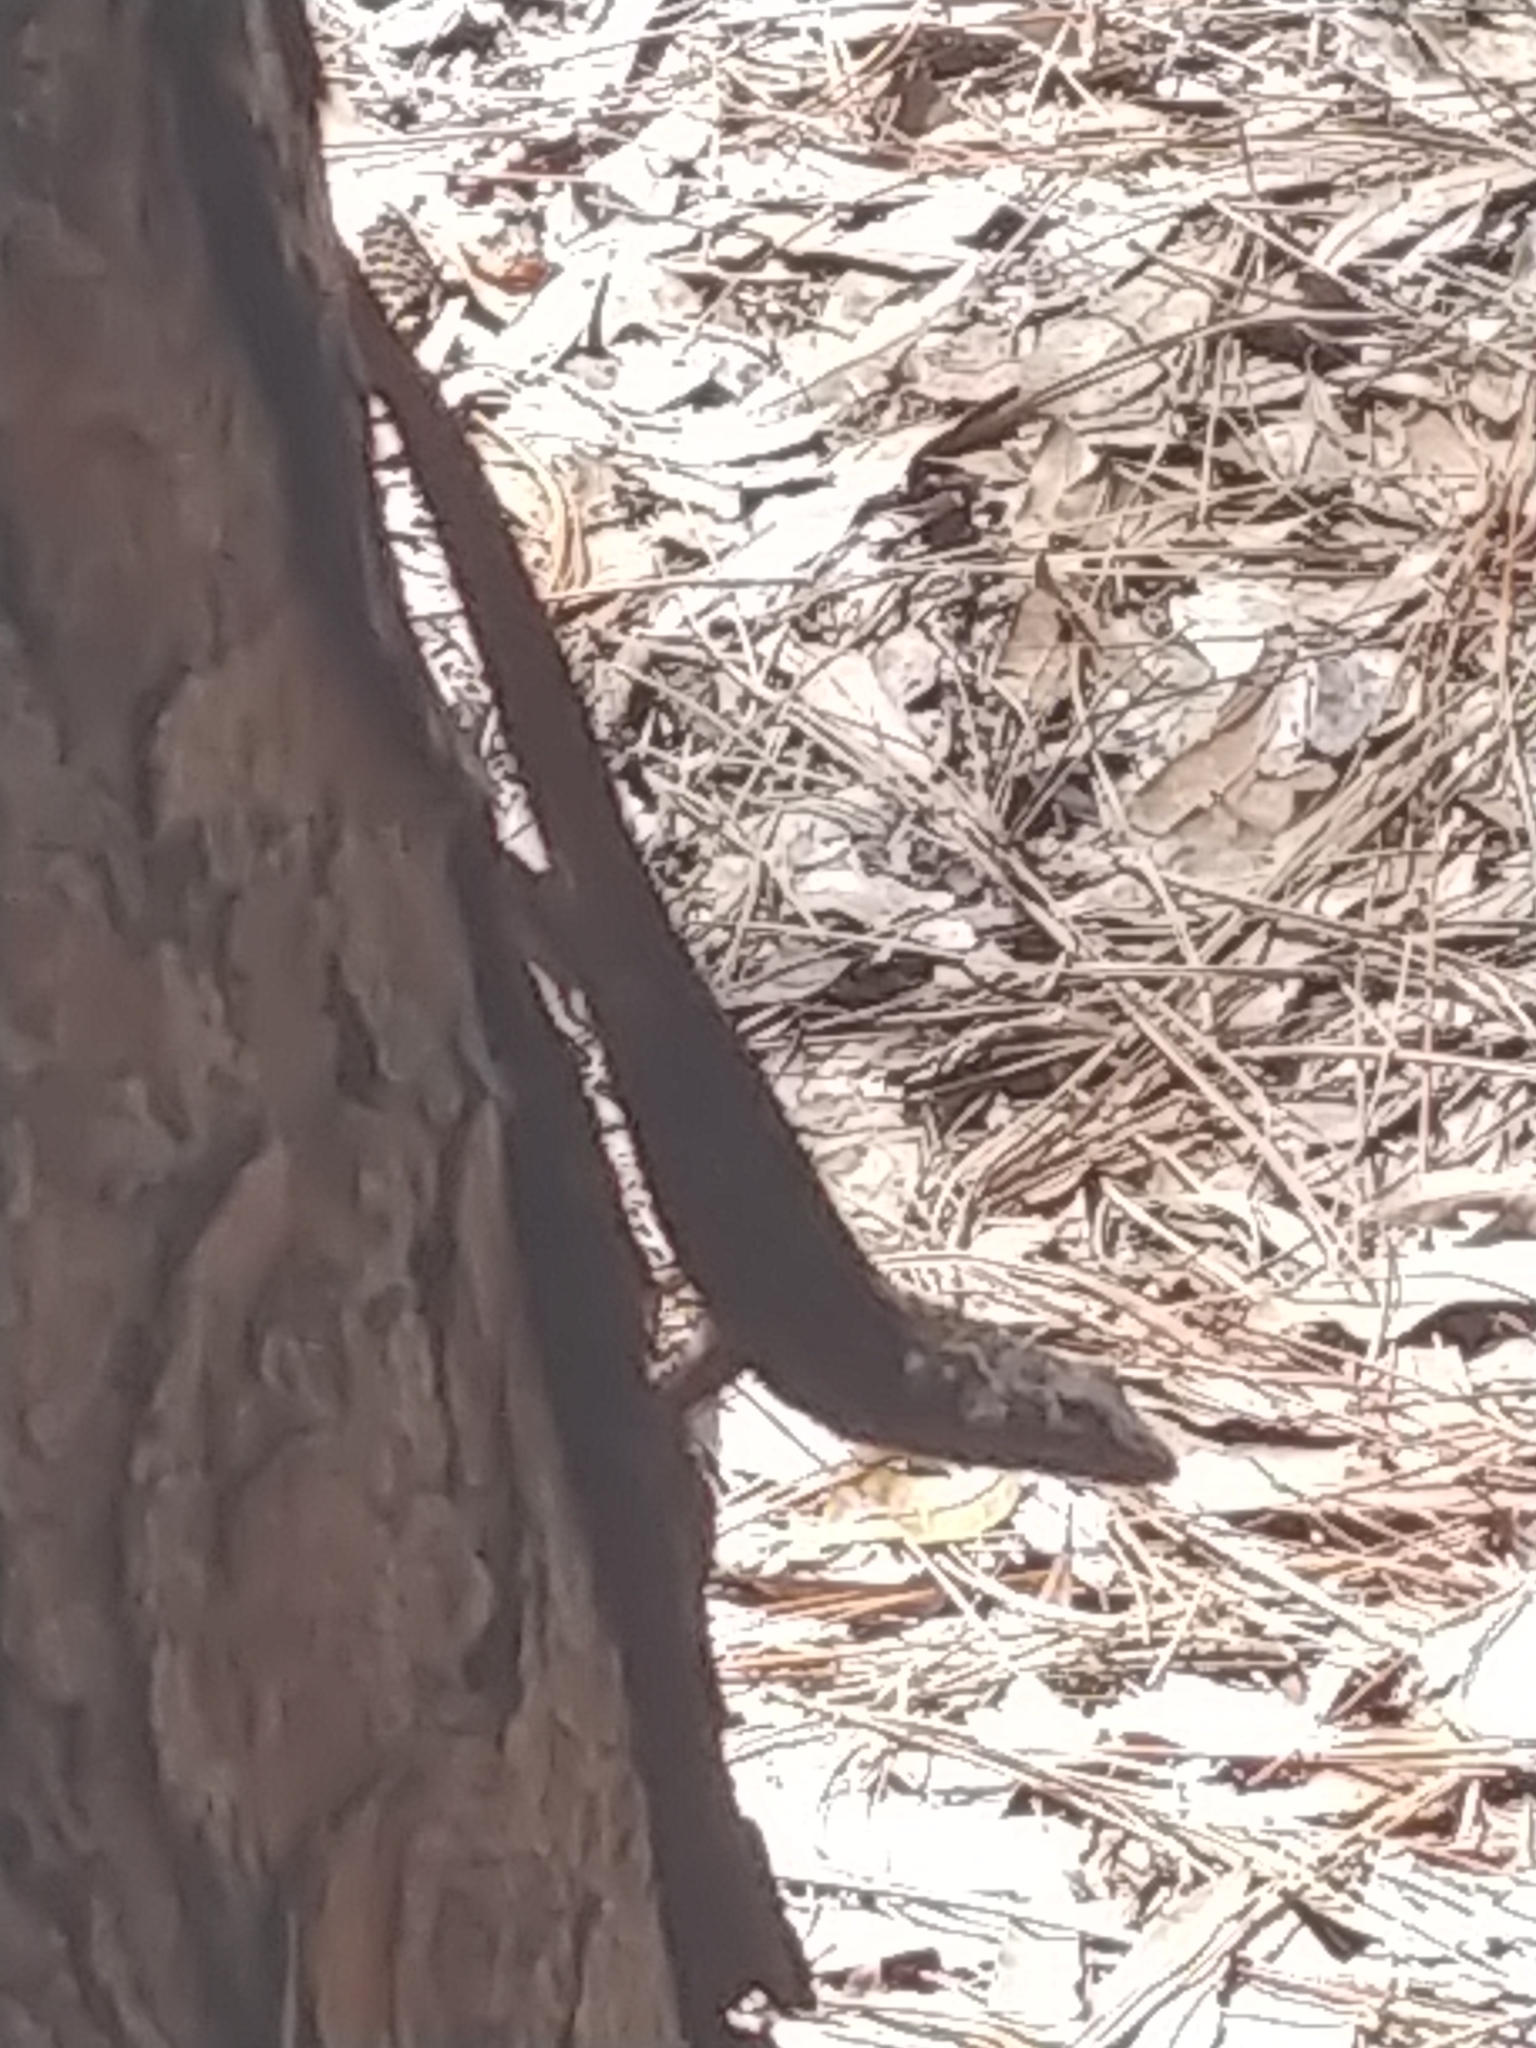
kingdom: Animalia
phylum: Chordata
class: Squamata
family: Dactyloidae
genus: Anolis
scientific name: Anolis sagrei
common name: Brown anole
